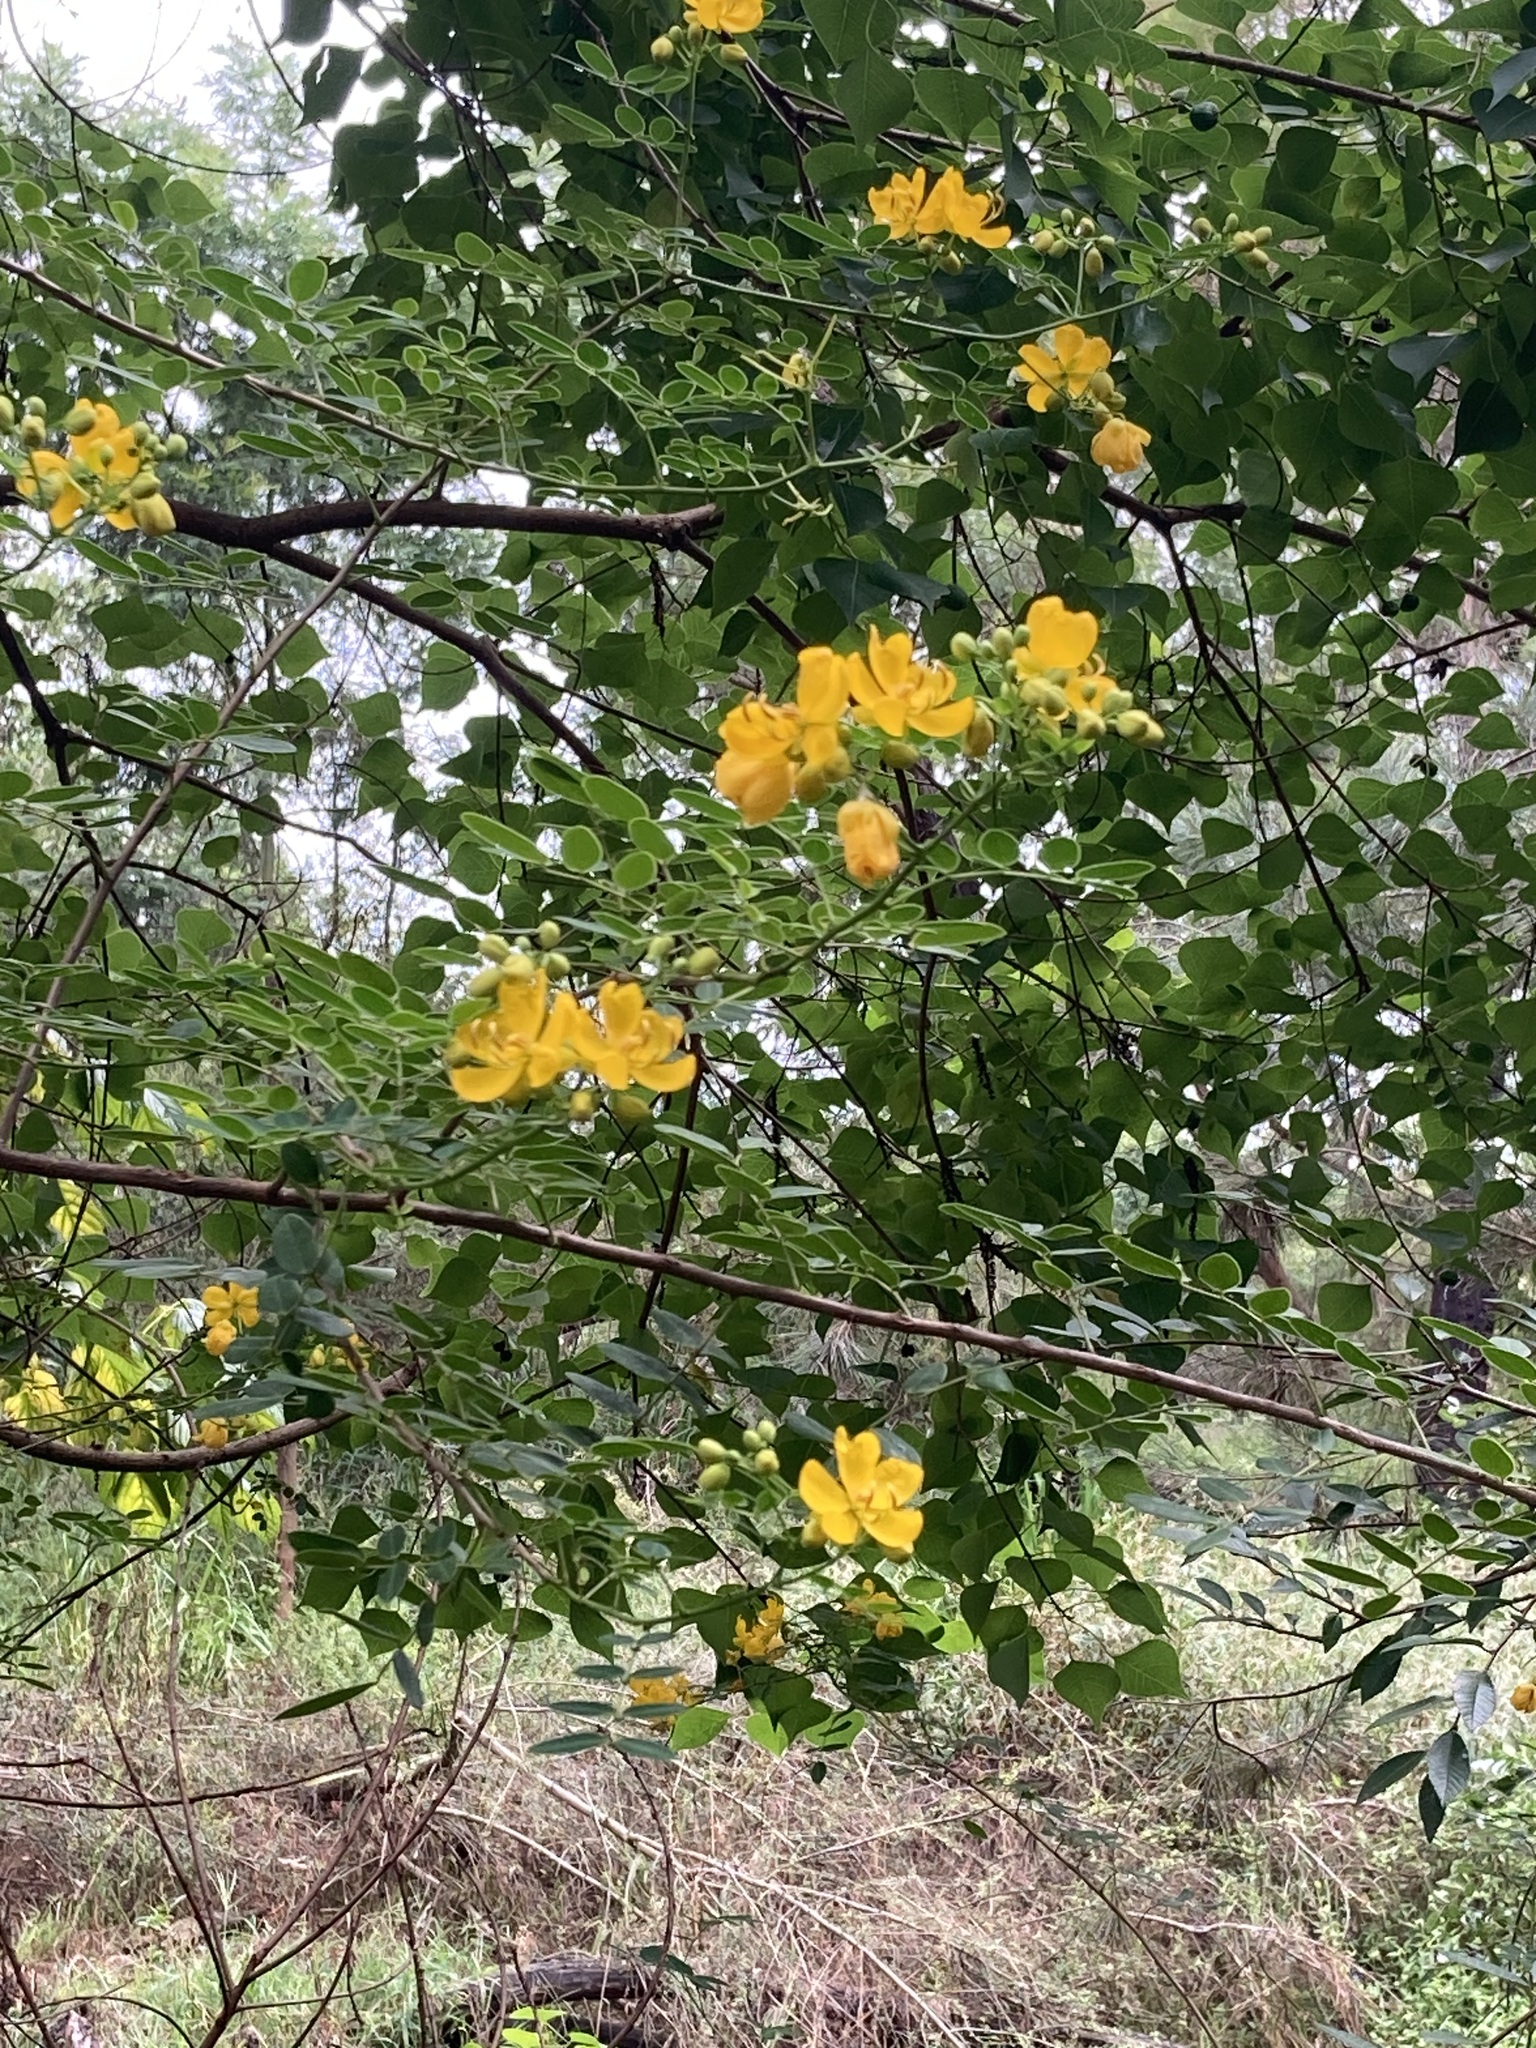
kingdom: Plantae
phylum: Tracheophyta
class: Magnoliopsida
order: Fabales
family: Fabaceae
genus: Senna
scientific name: Senna pendula
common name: Easter cassia
